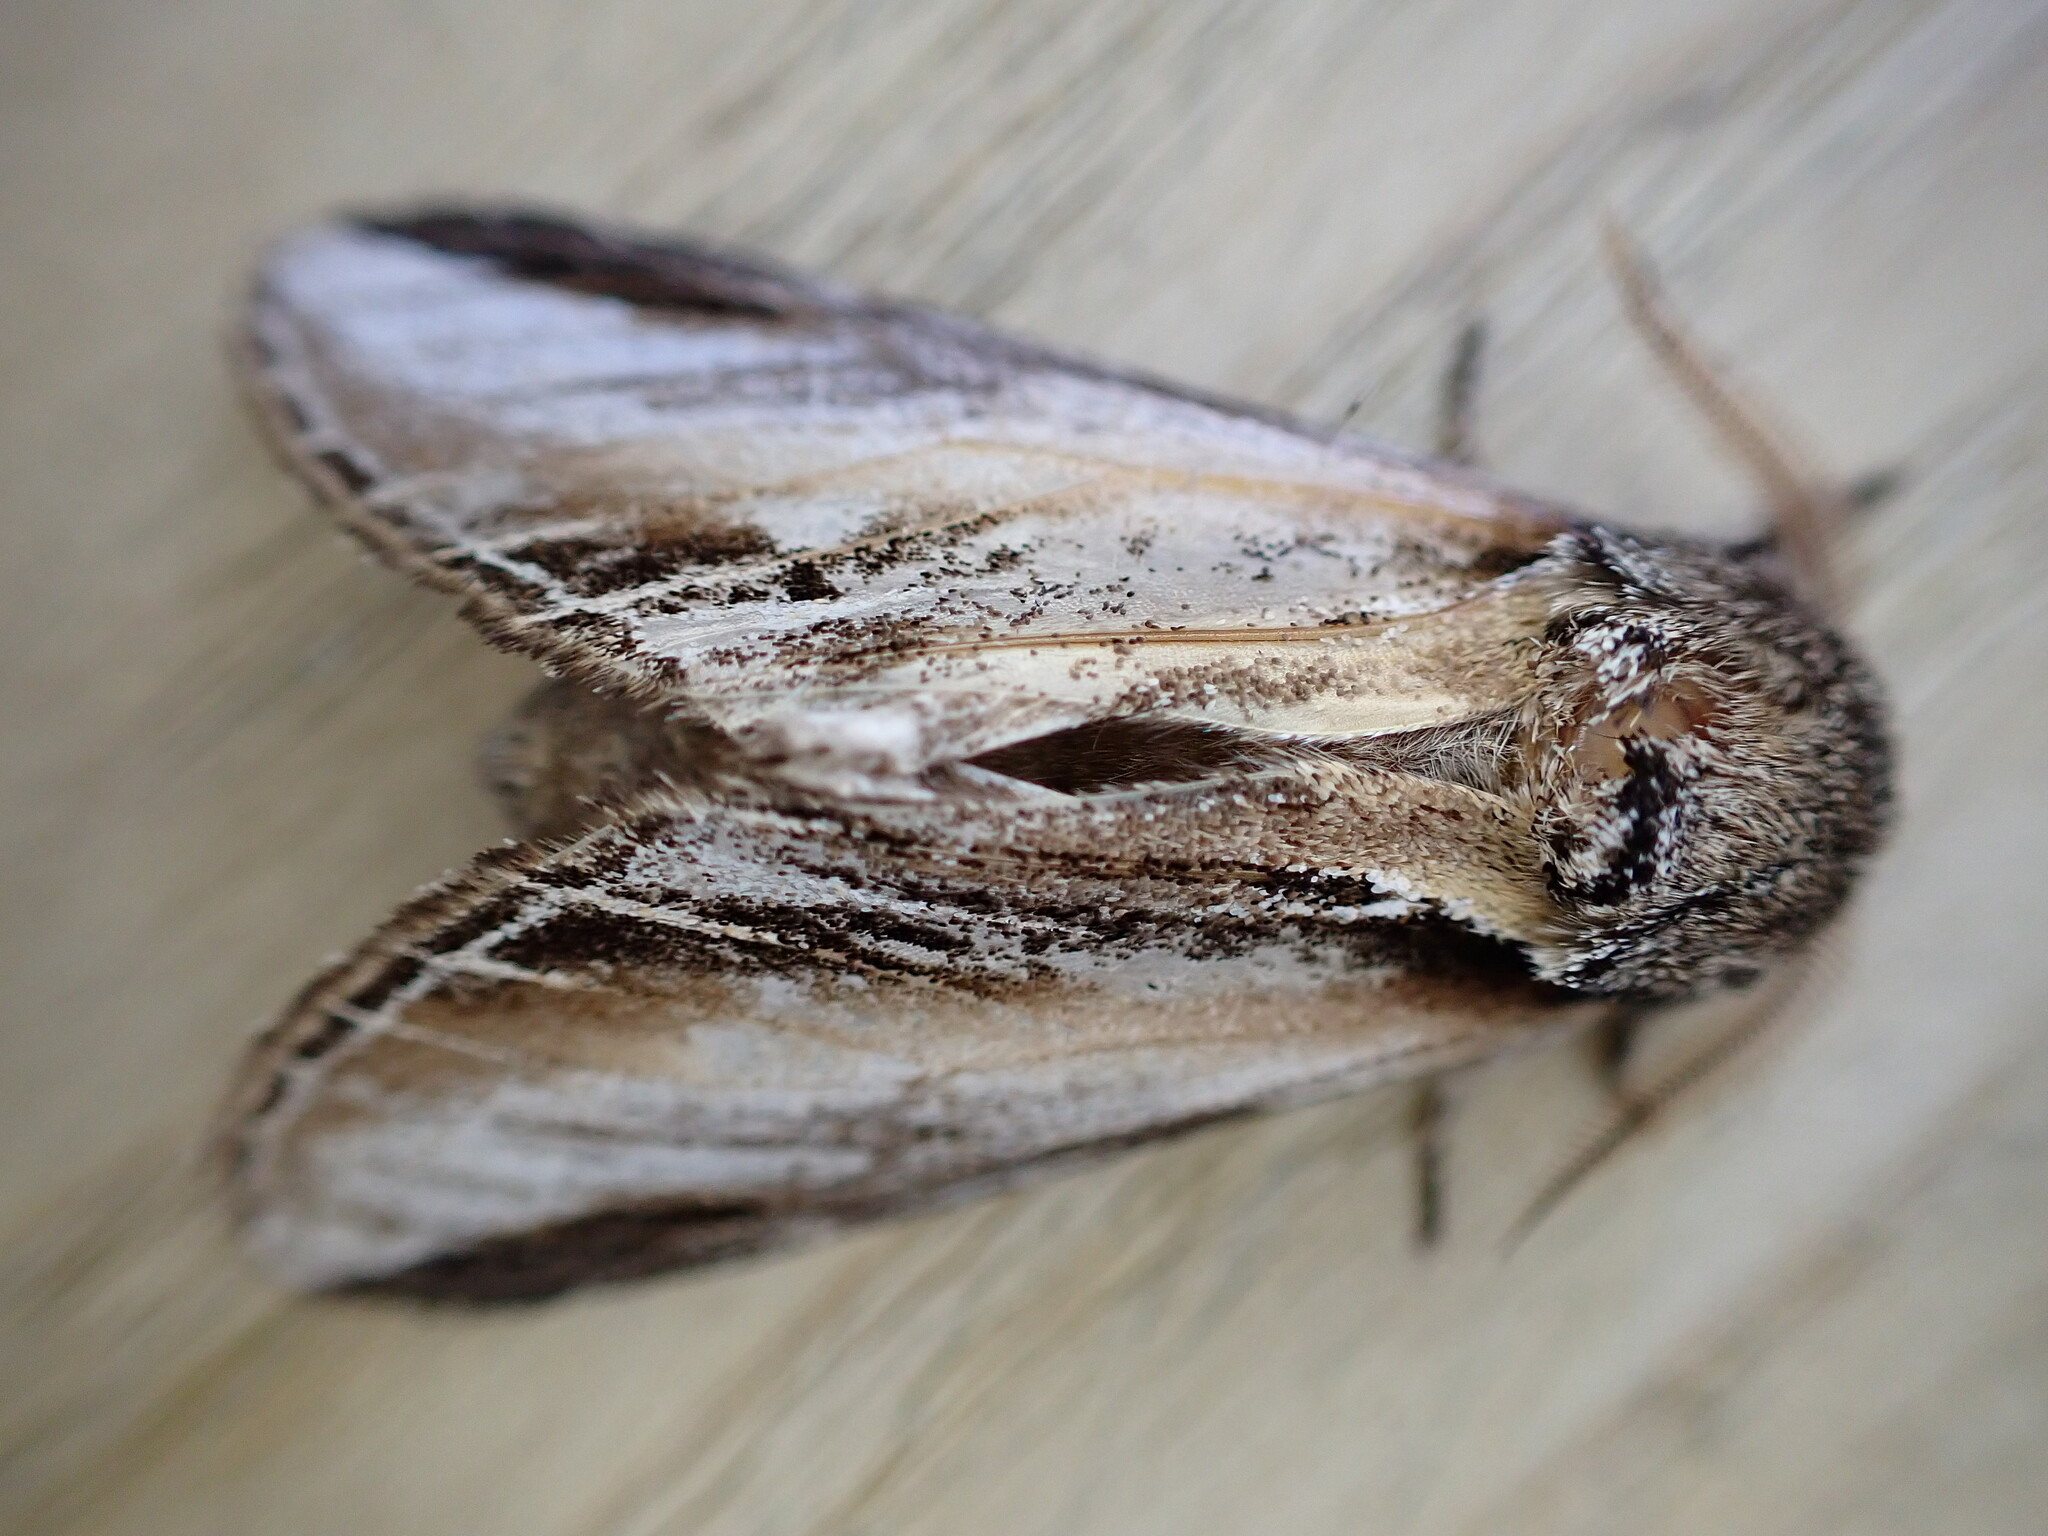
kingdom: Animalia
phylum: Arthropoda
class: Insecta
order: Lepidoptera
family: Notodontidae
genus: Pheosia
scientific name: Pheosia tremula
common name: Swallow prominent
